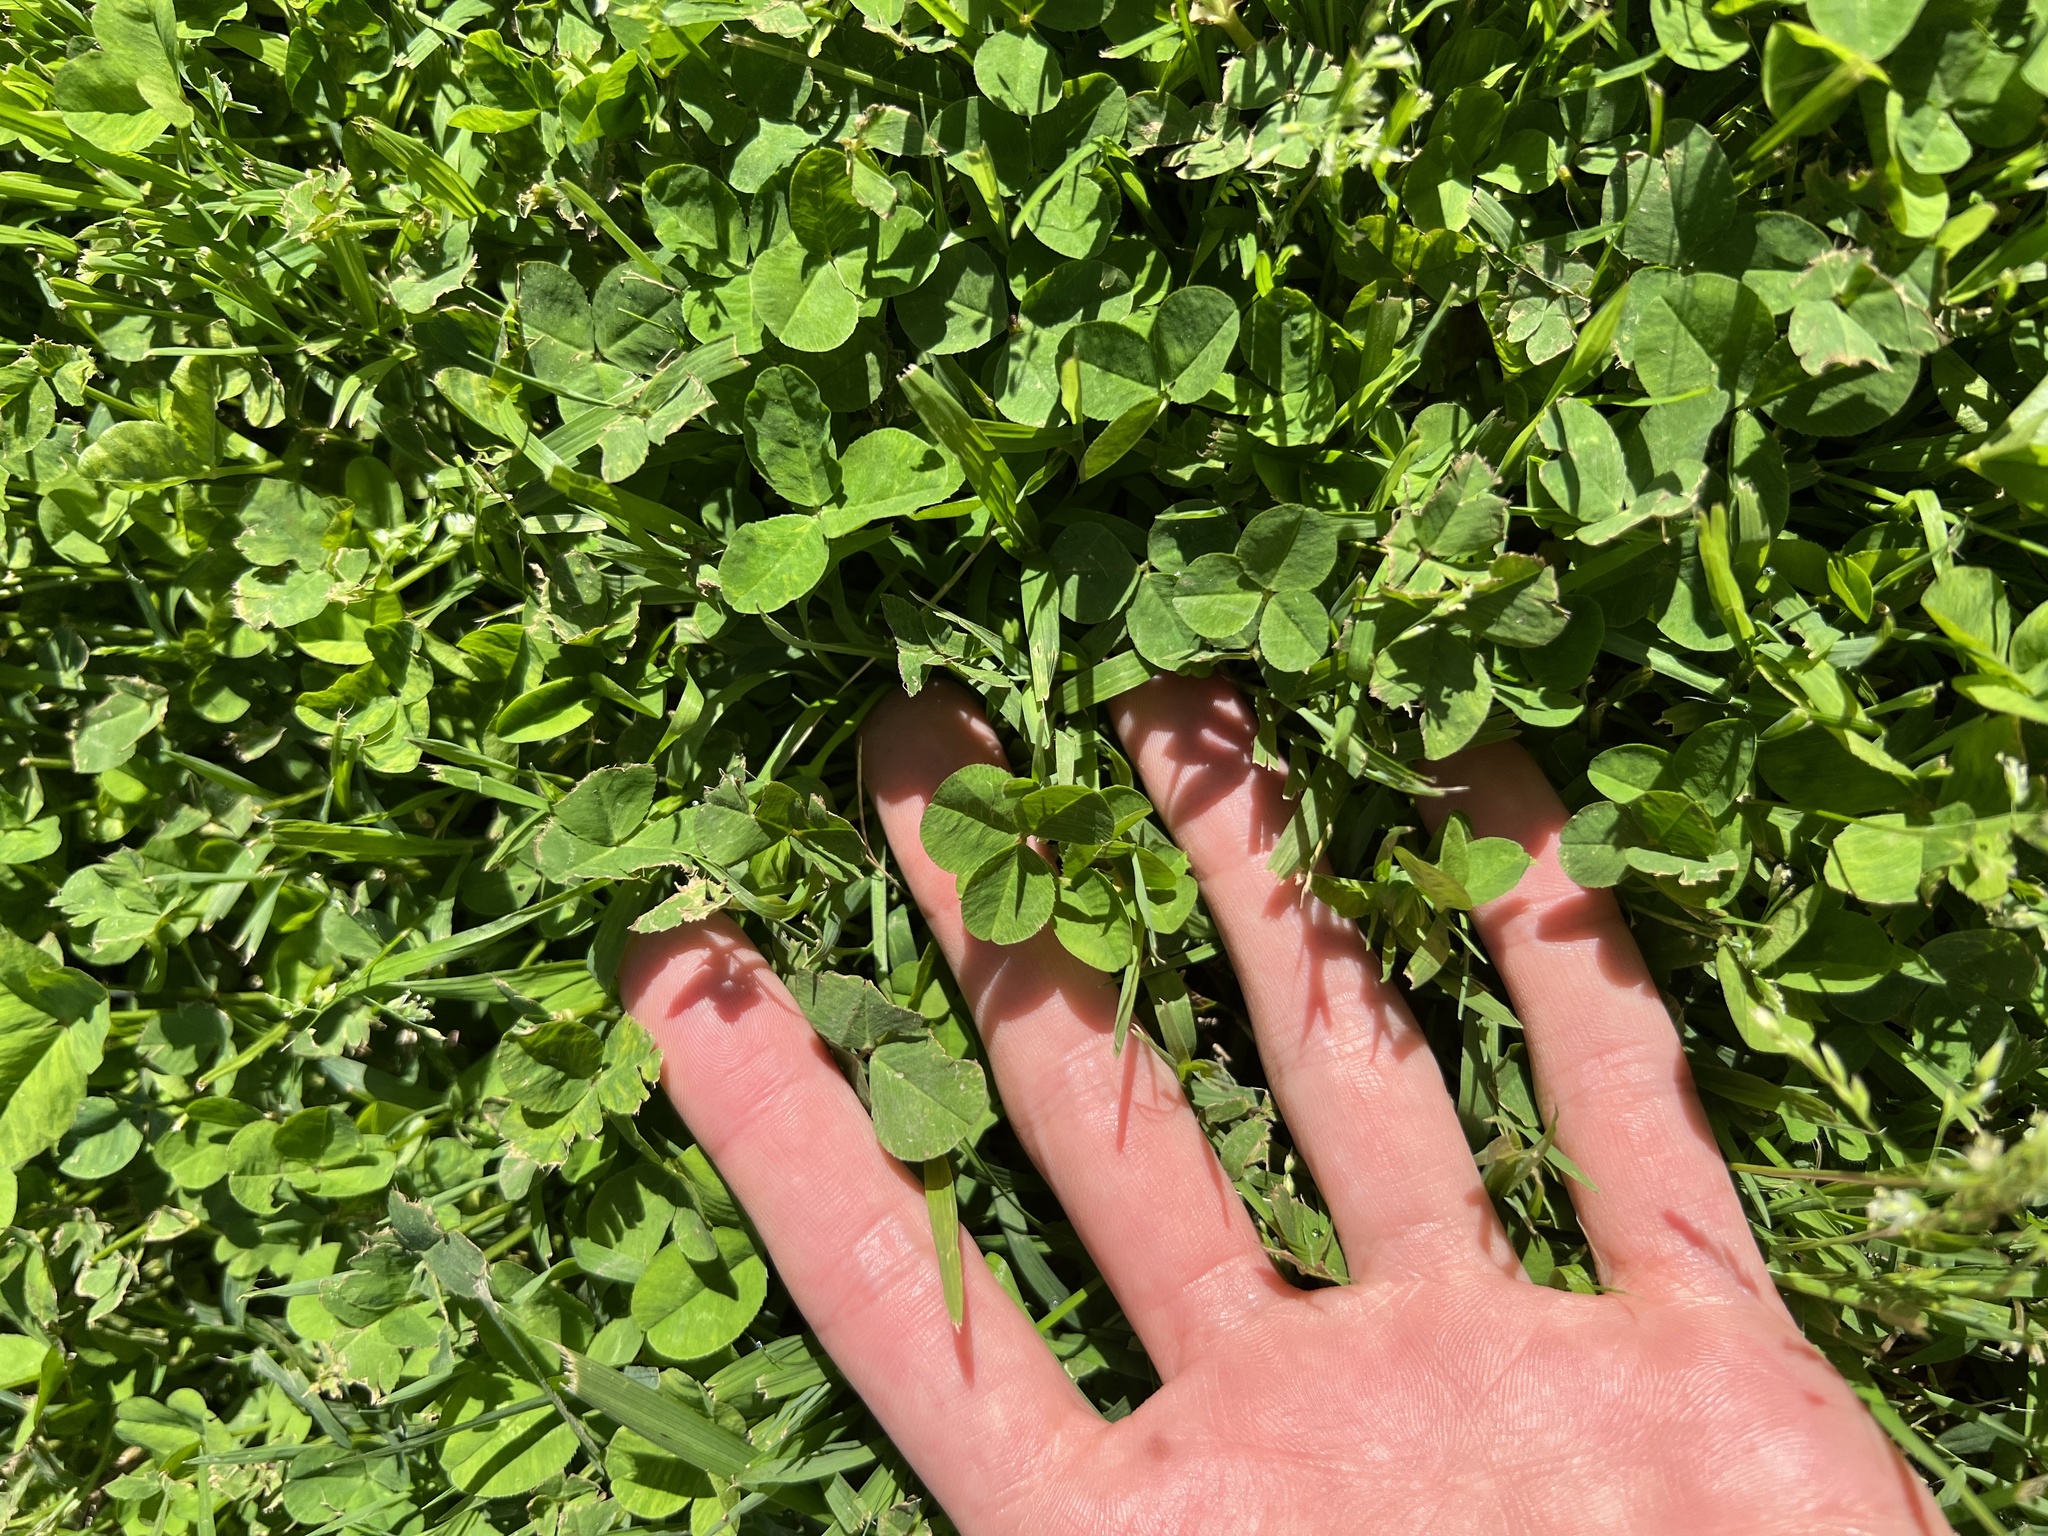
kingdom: Plantae
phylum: Tracheophyta
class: Magnoliopsida
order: Fabales
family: Fabaceae
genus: Trifolium
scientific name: Trifolium repens
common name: White clover
